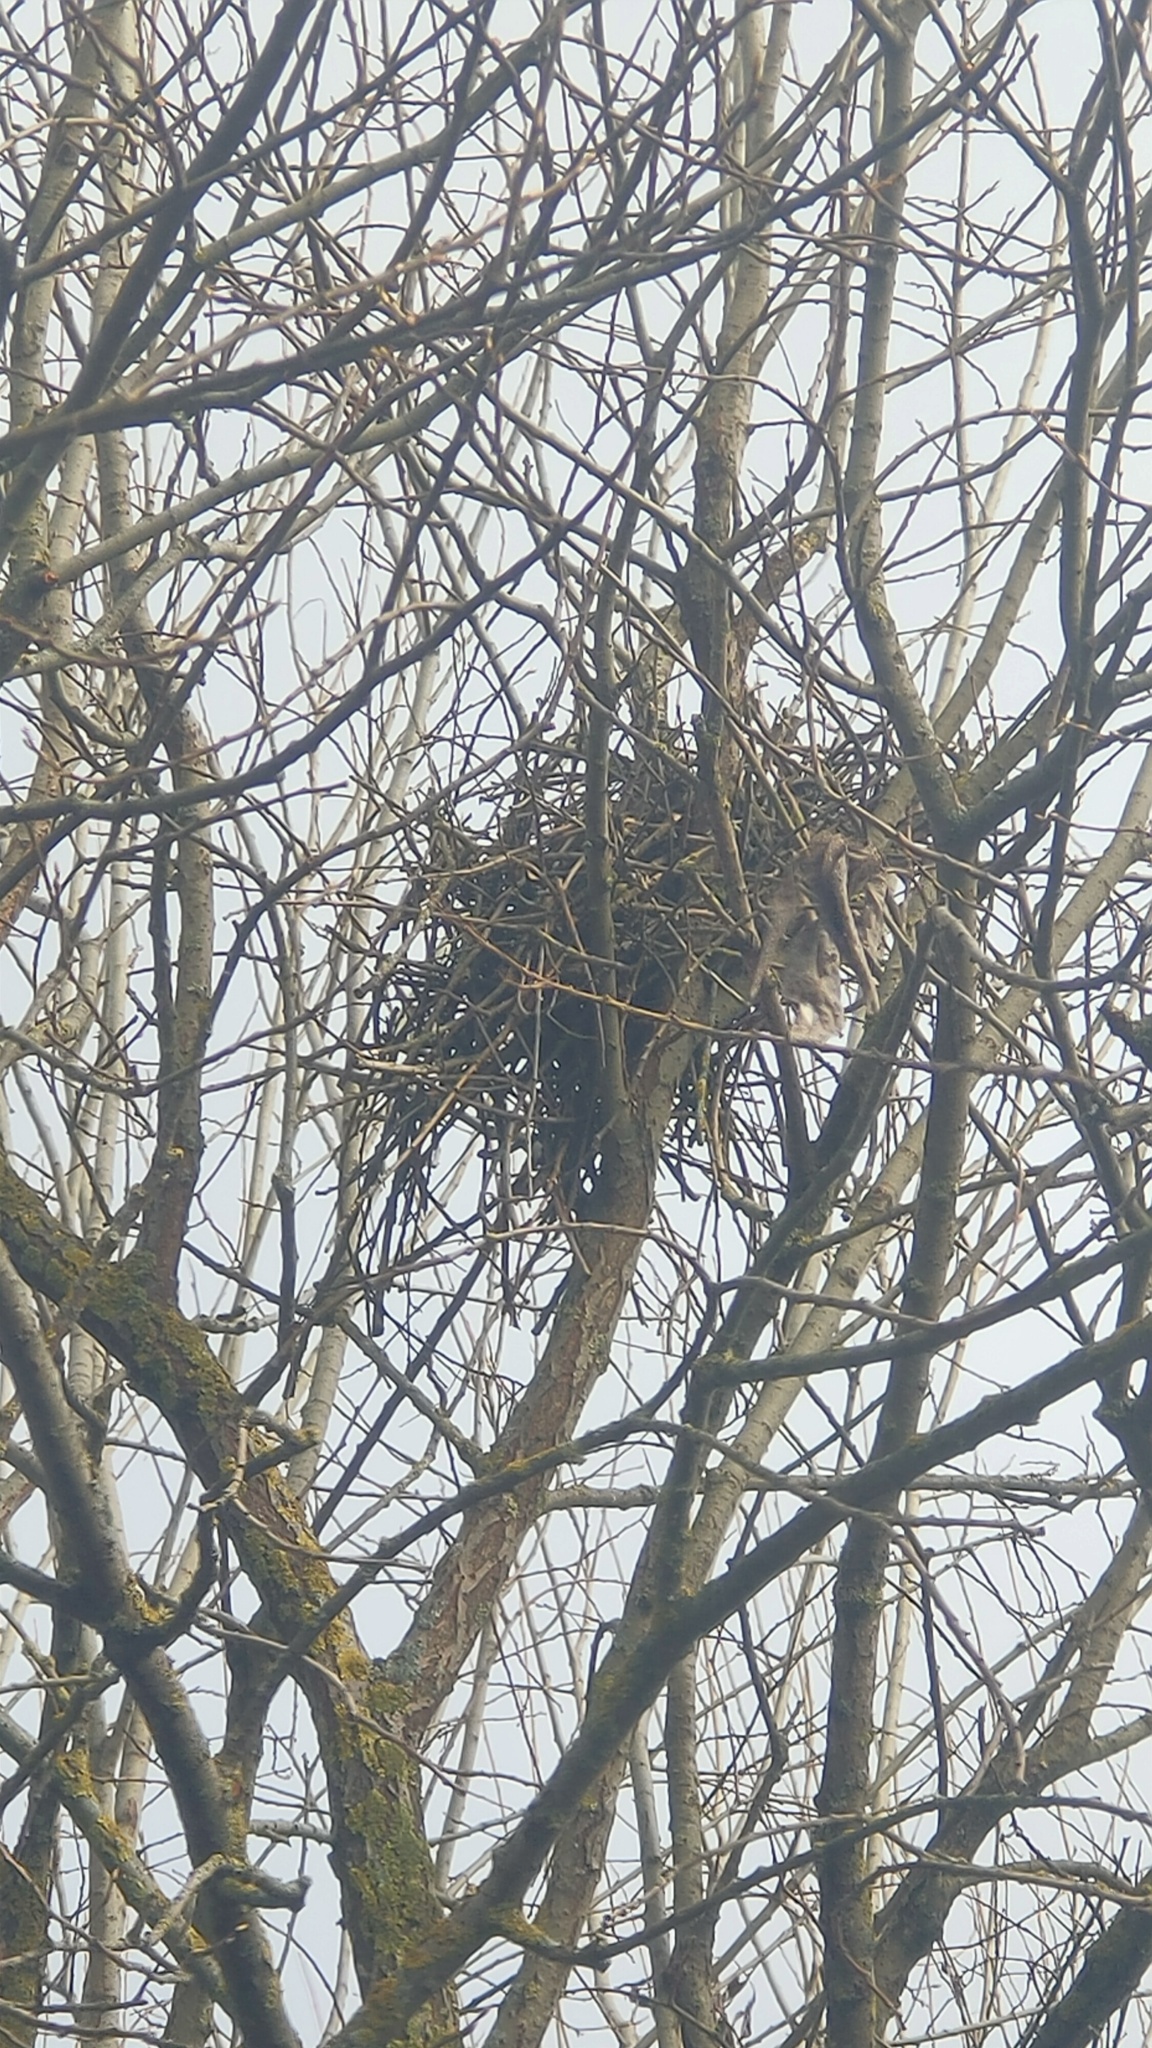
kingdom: Animalia
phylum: Chordata
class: Aves
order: Passeriformes
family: Corvidae
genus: Corvus
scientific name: Corvus cornix
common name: Hooded crow
